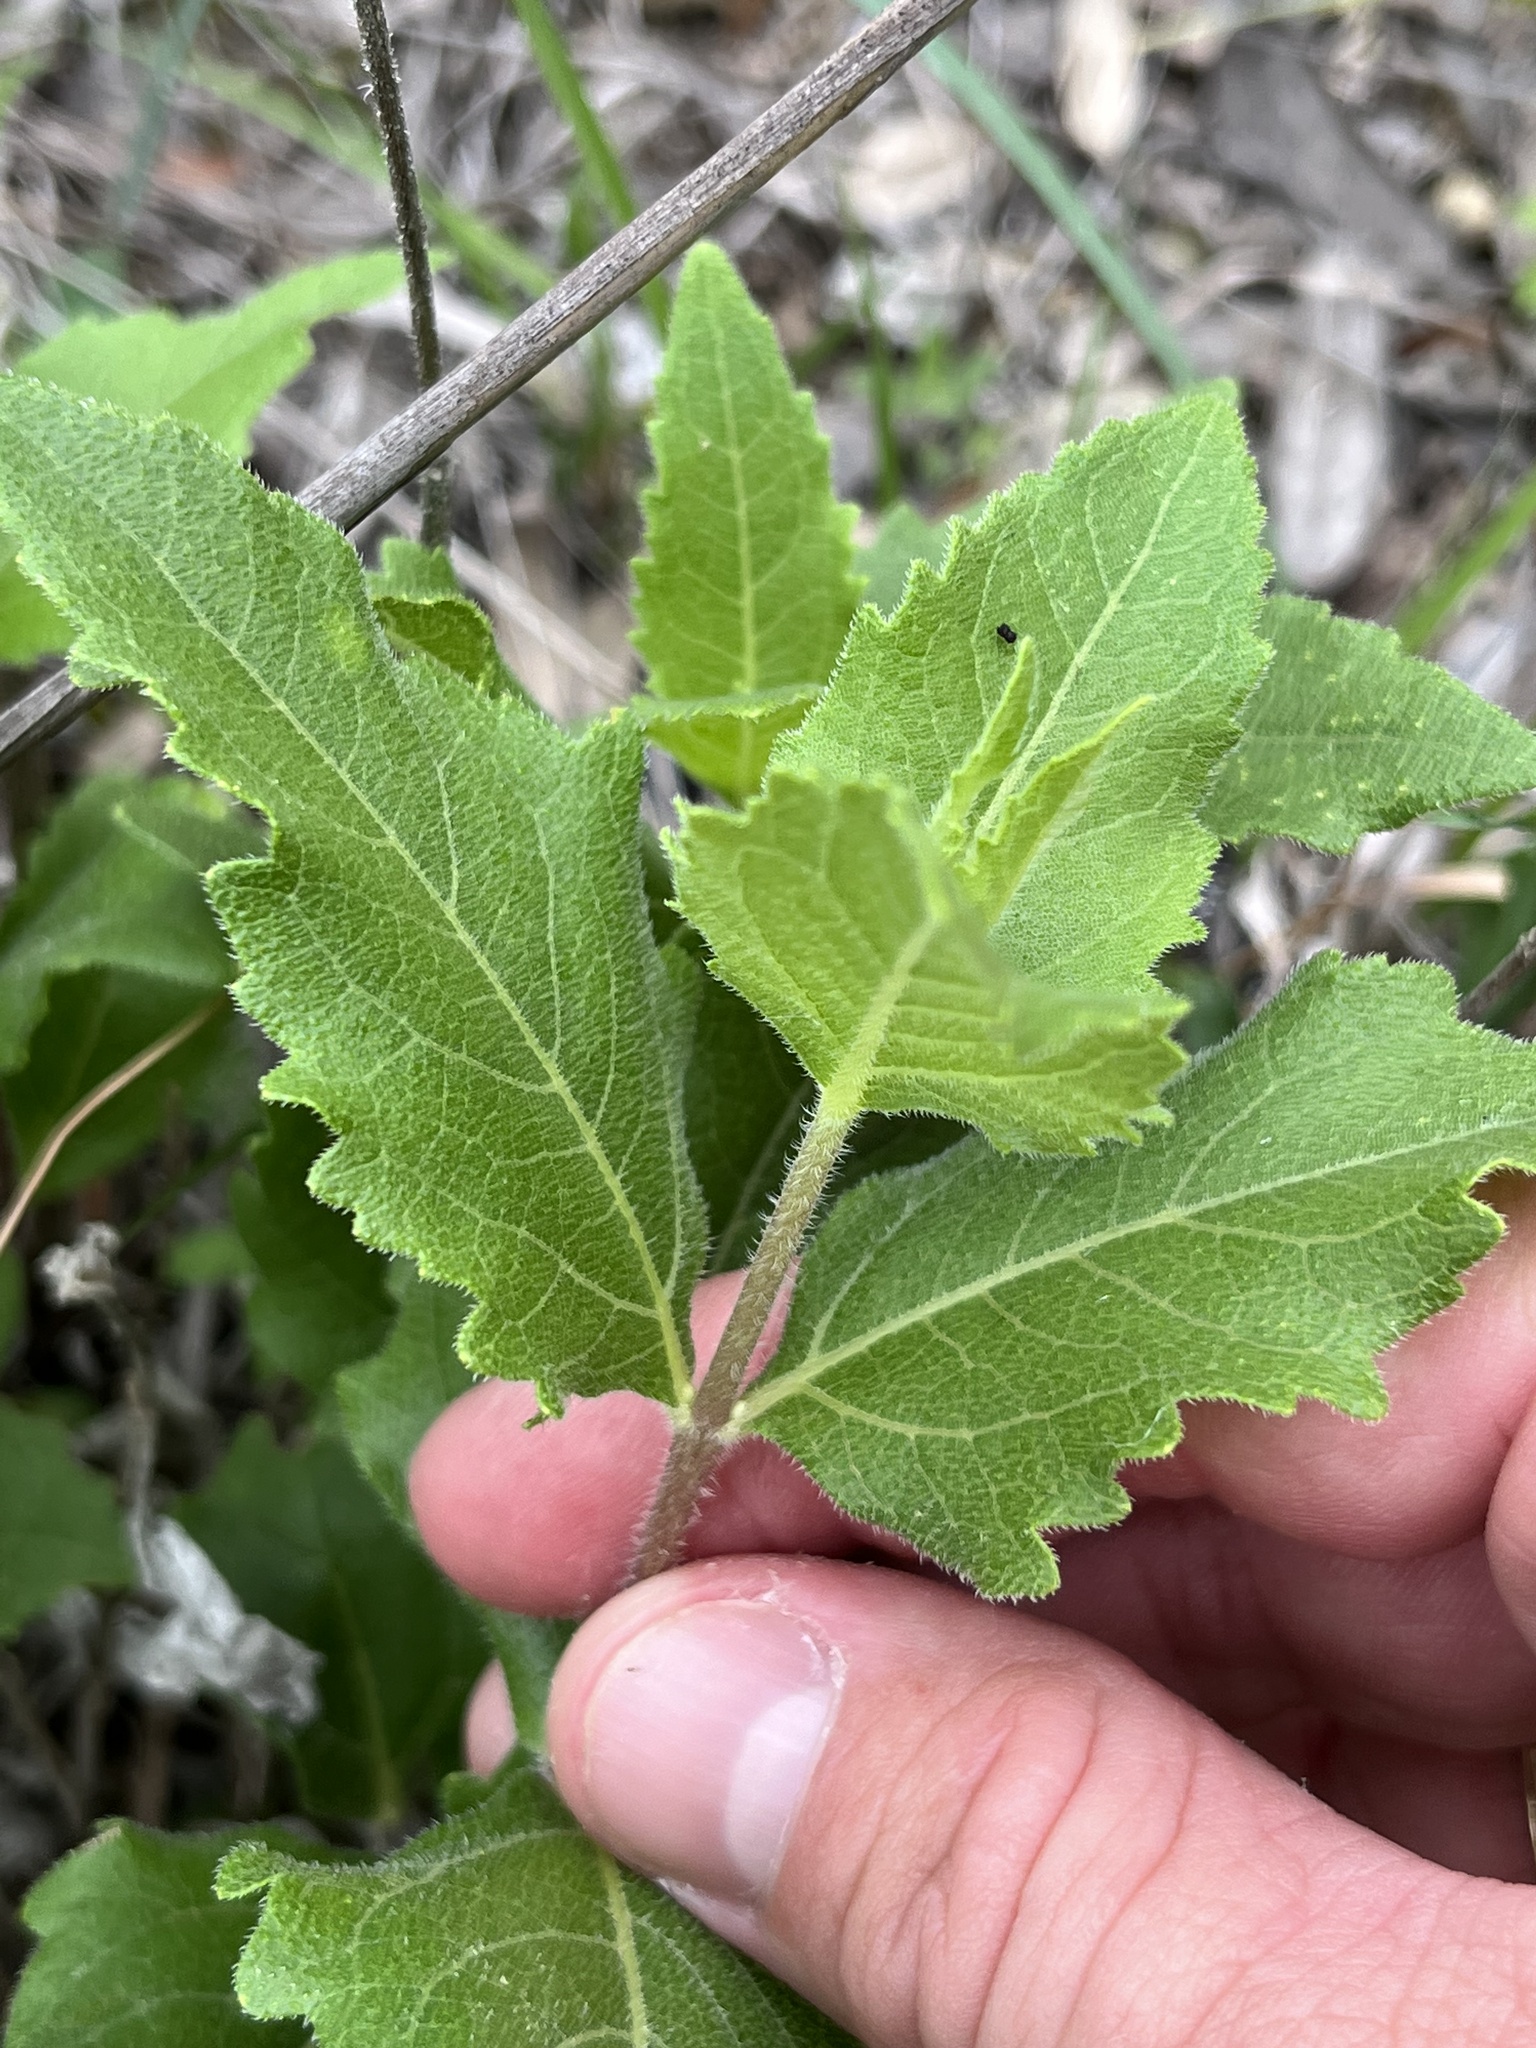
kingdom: Plantae
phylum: Tracheophyta
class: Magnoliopsida
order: Asterales
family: Asteraceae
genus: Verbesina
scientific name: Verbesina lindheimeri
